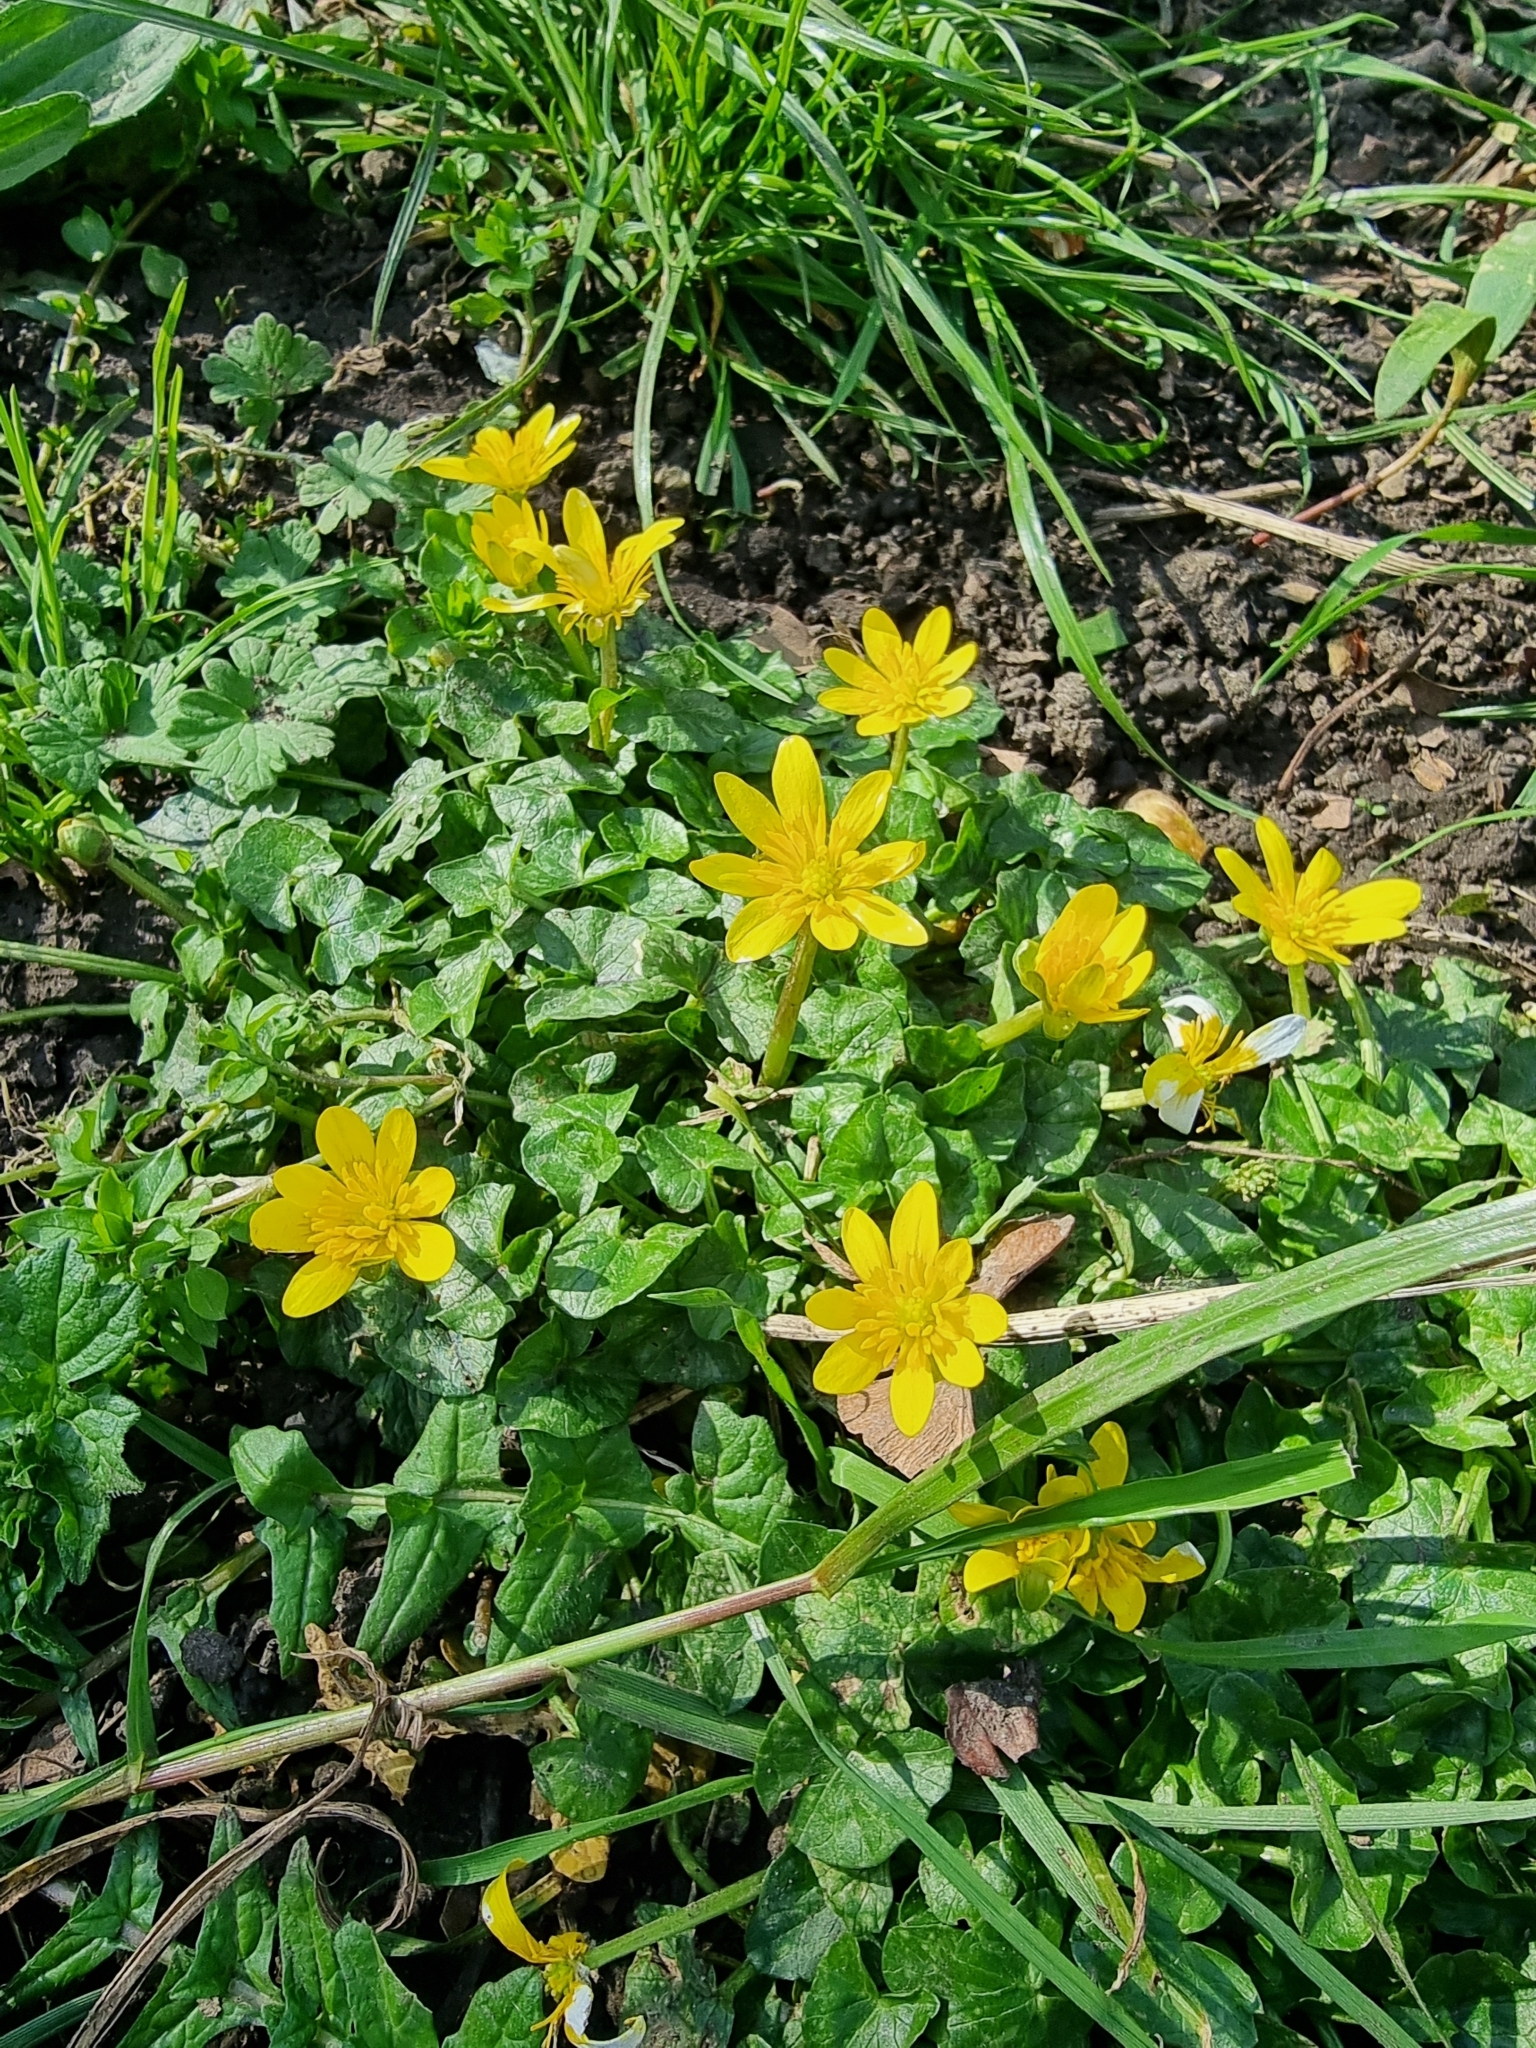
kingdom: Plantae
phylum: Tracheophyta
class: Magnoliopsida
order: Ranunculales
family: Ranunculaceae
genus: Ficaria
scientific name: Ficaria verna
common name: Lesser celandine
